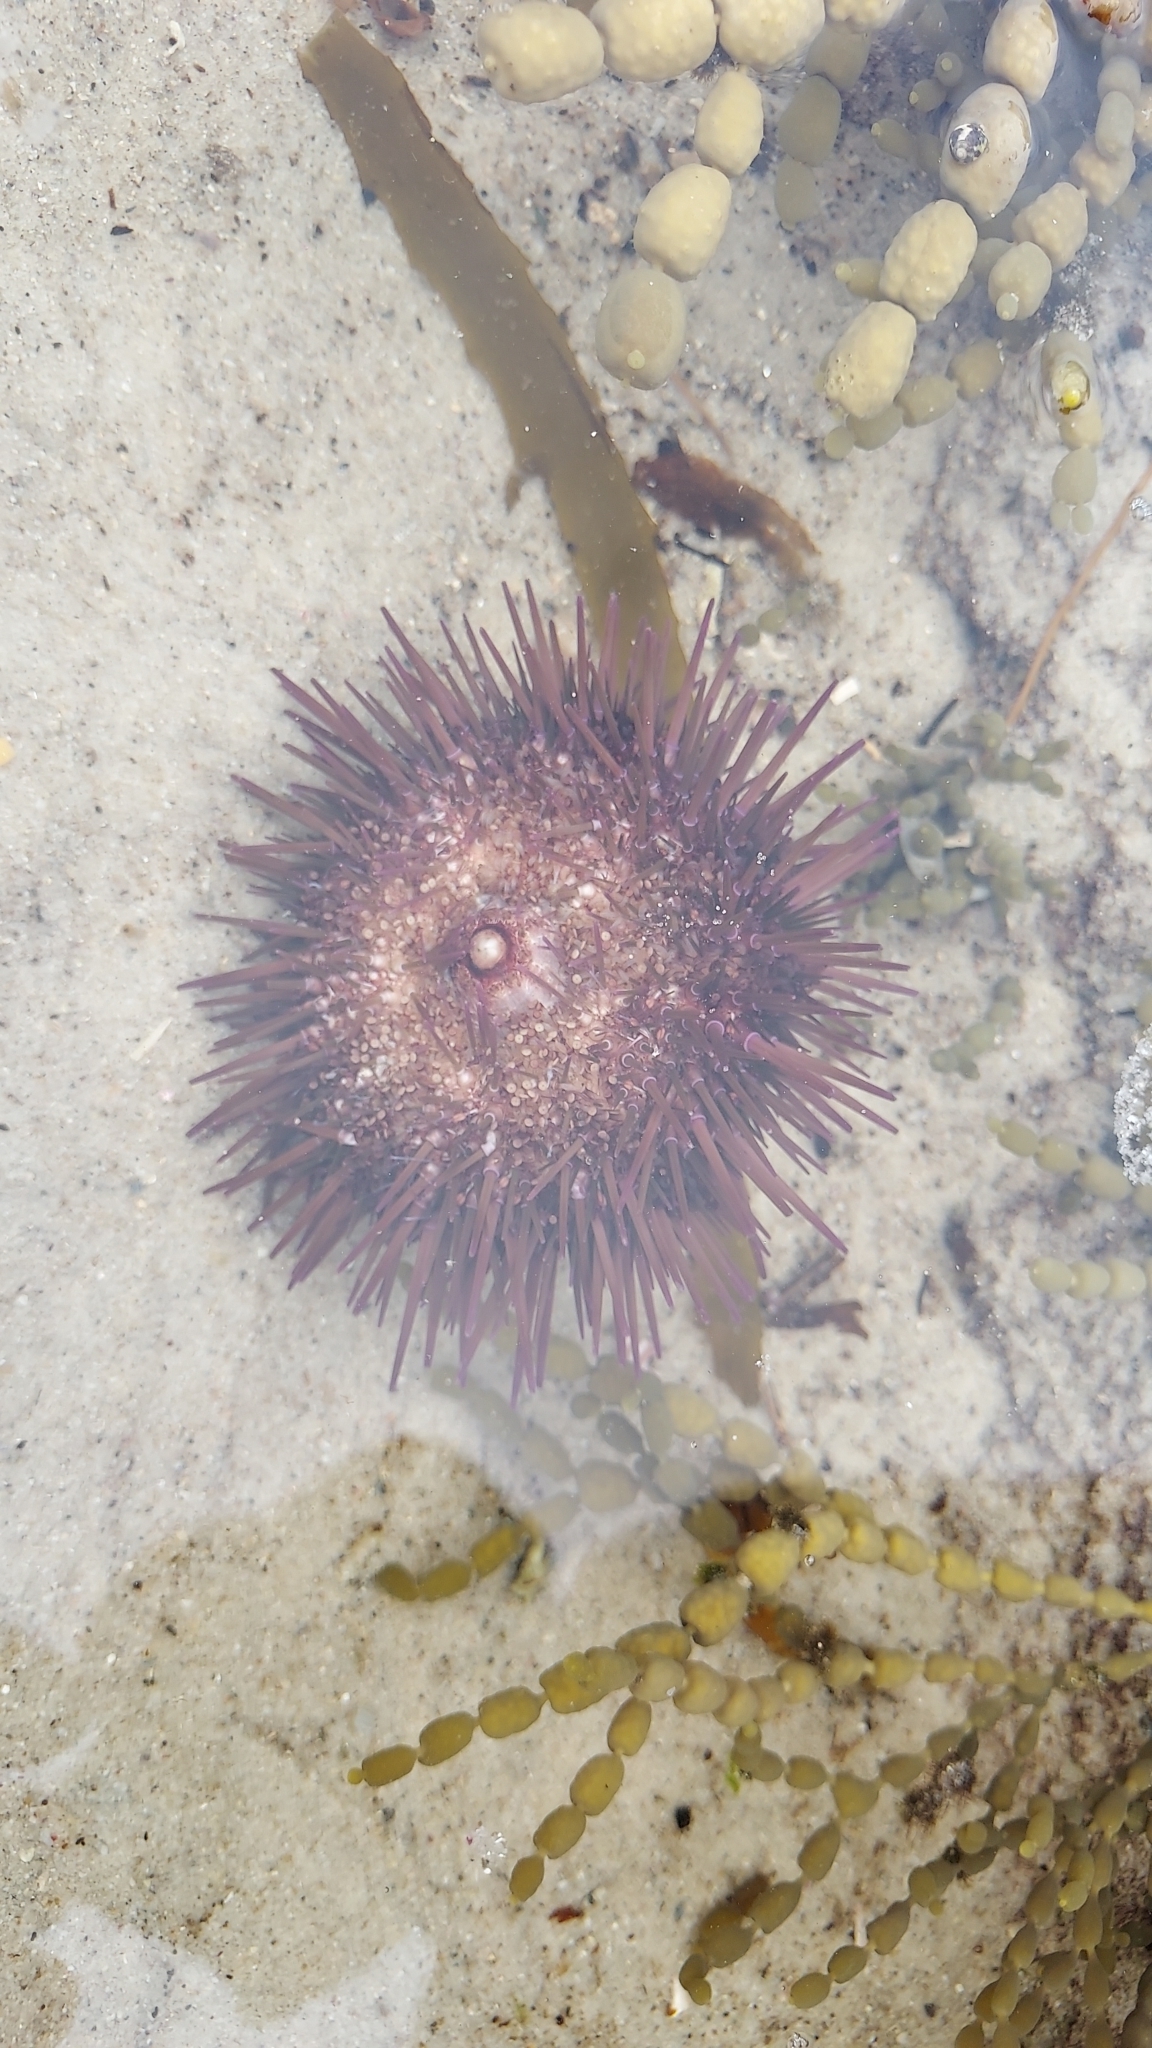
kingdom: Animalia
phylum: Echinodermata
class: Echinoidea
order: Camarodonta
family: Echinometridae
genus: Heliocidaris
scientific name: Heliocidaris erythrogramma
